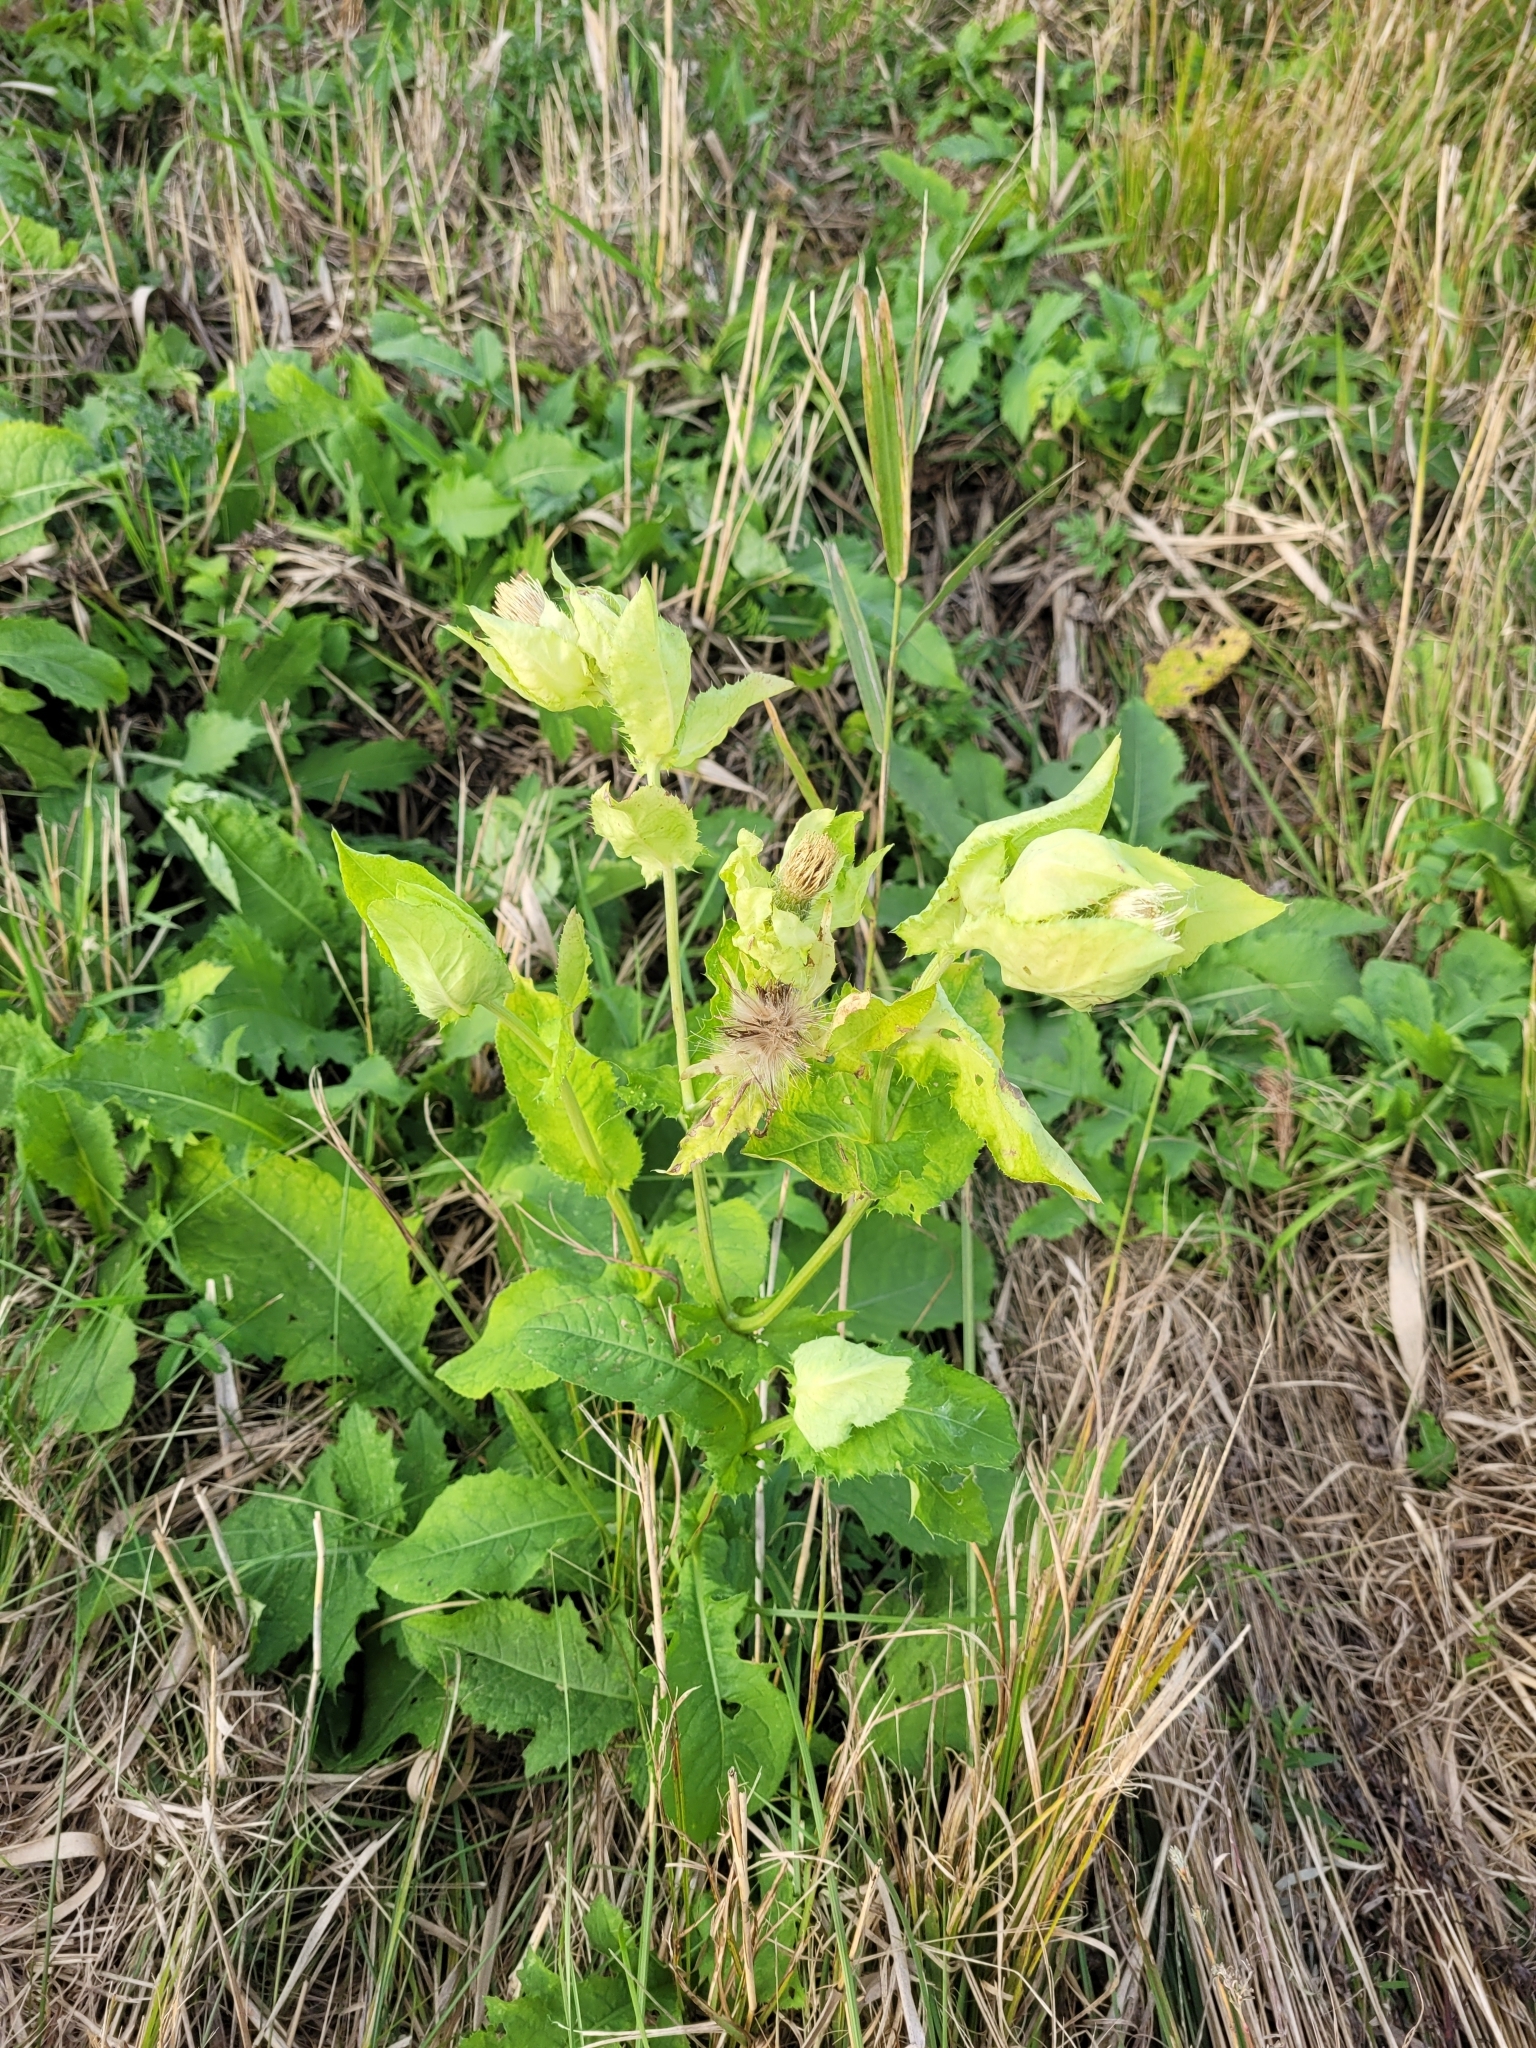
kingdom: Plantae
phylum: Tracheophyta
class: Magnoliopsida
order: Asterales
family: Asteraceae
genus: Cirsium
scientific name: Cirsium oleraceum
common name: Cabbage thistle
